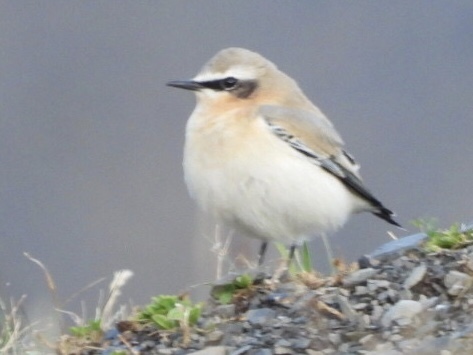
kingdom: Animalia
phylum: Chordata
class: Aves
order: Passeriformes
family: Muscicapidae
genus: Oenanthe
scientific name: Oenanthe oenanthe
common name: Northern wheatear
